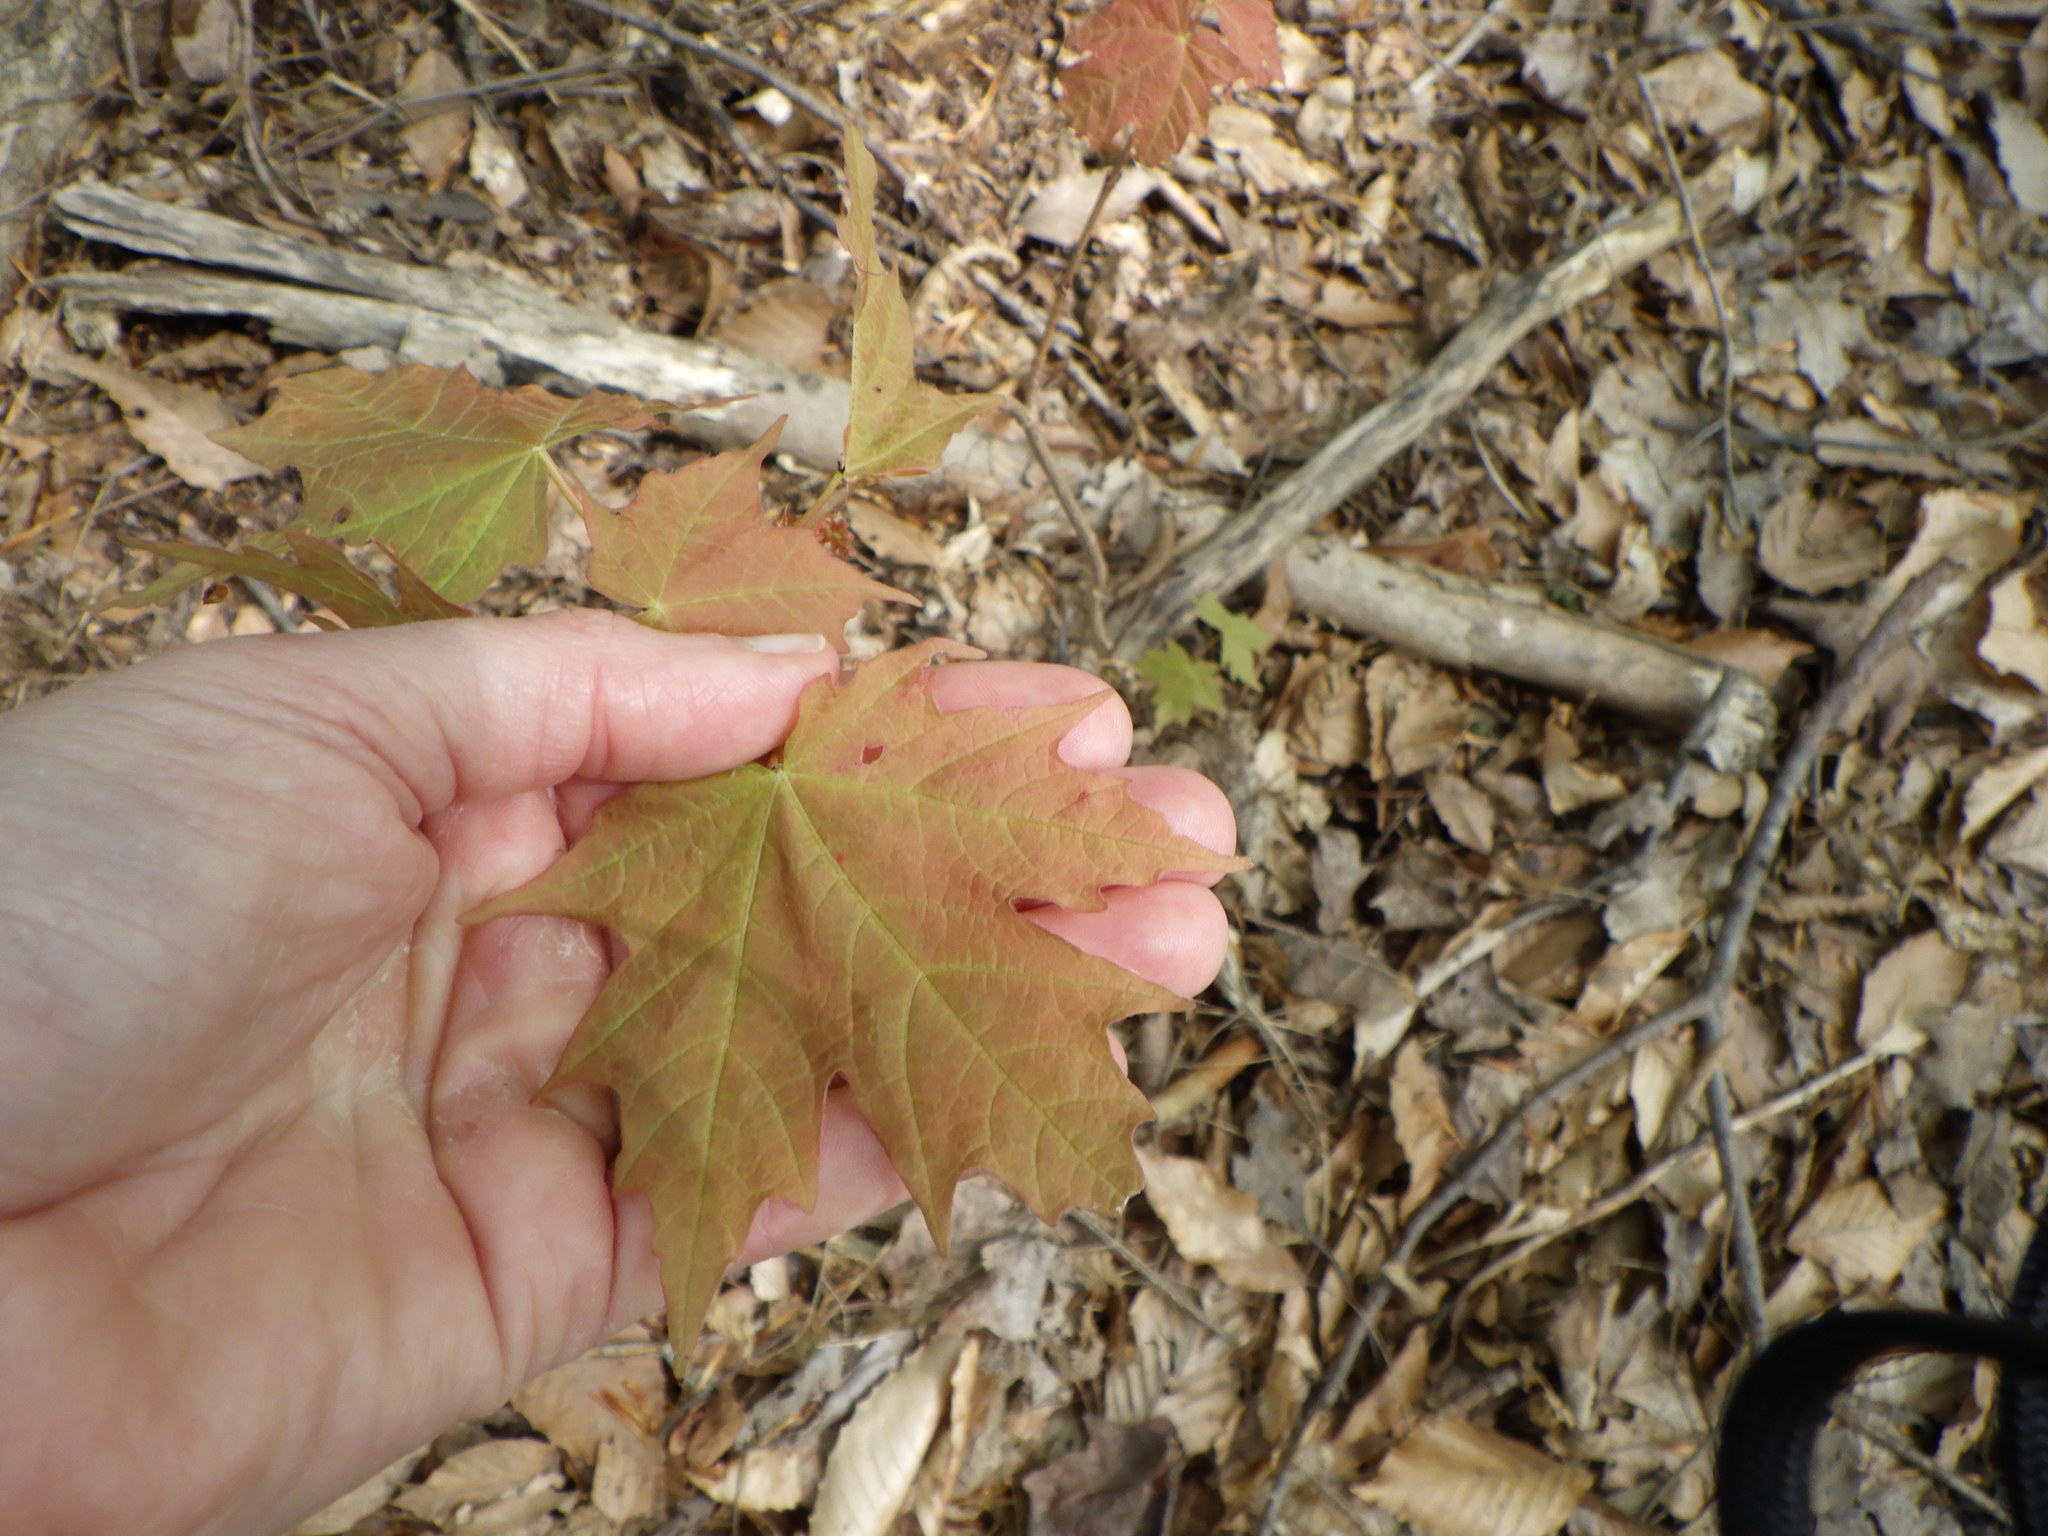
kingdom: Plantae
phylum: Tracheophyta
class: Magnoliopsida
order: Sapindales
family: Sapindaceae
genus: Acer
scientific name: Acer saccharum
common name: Sugar maple
